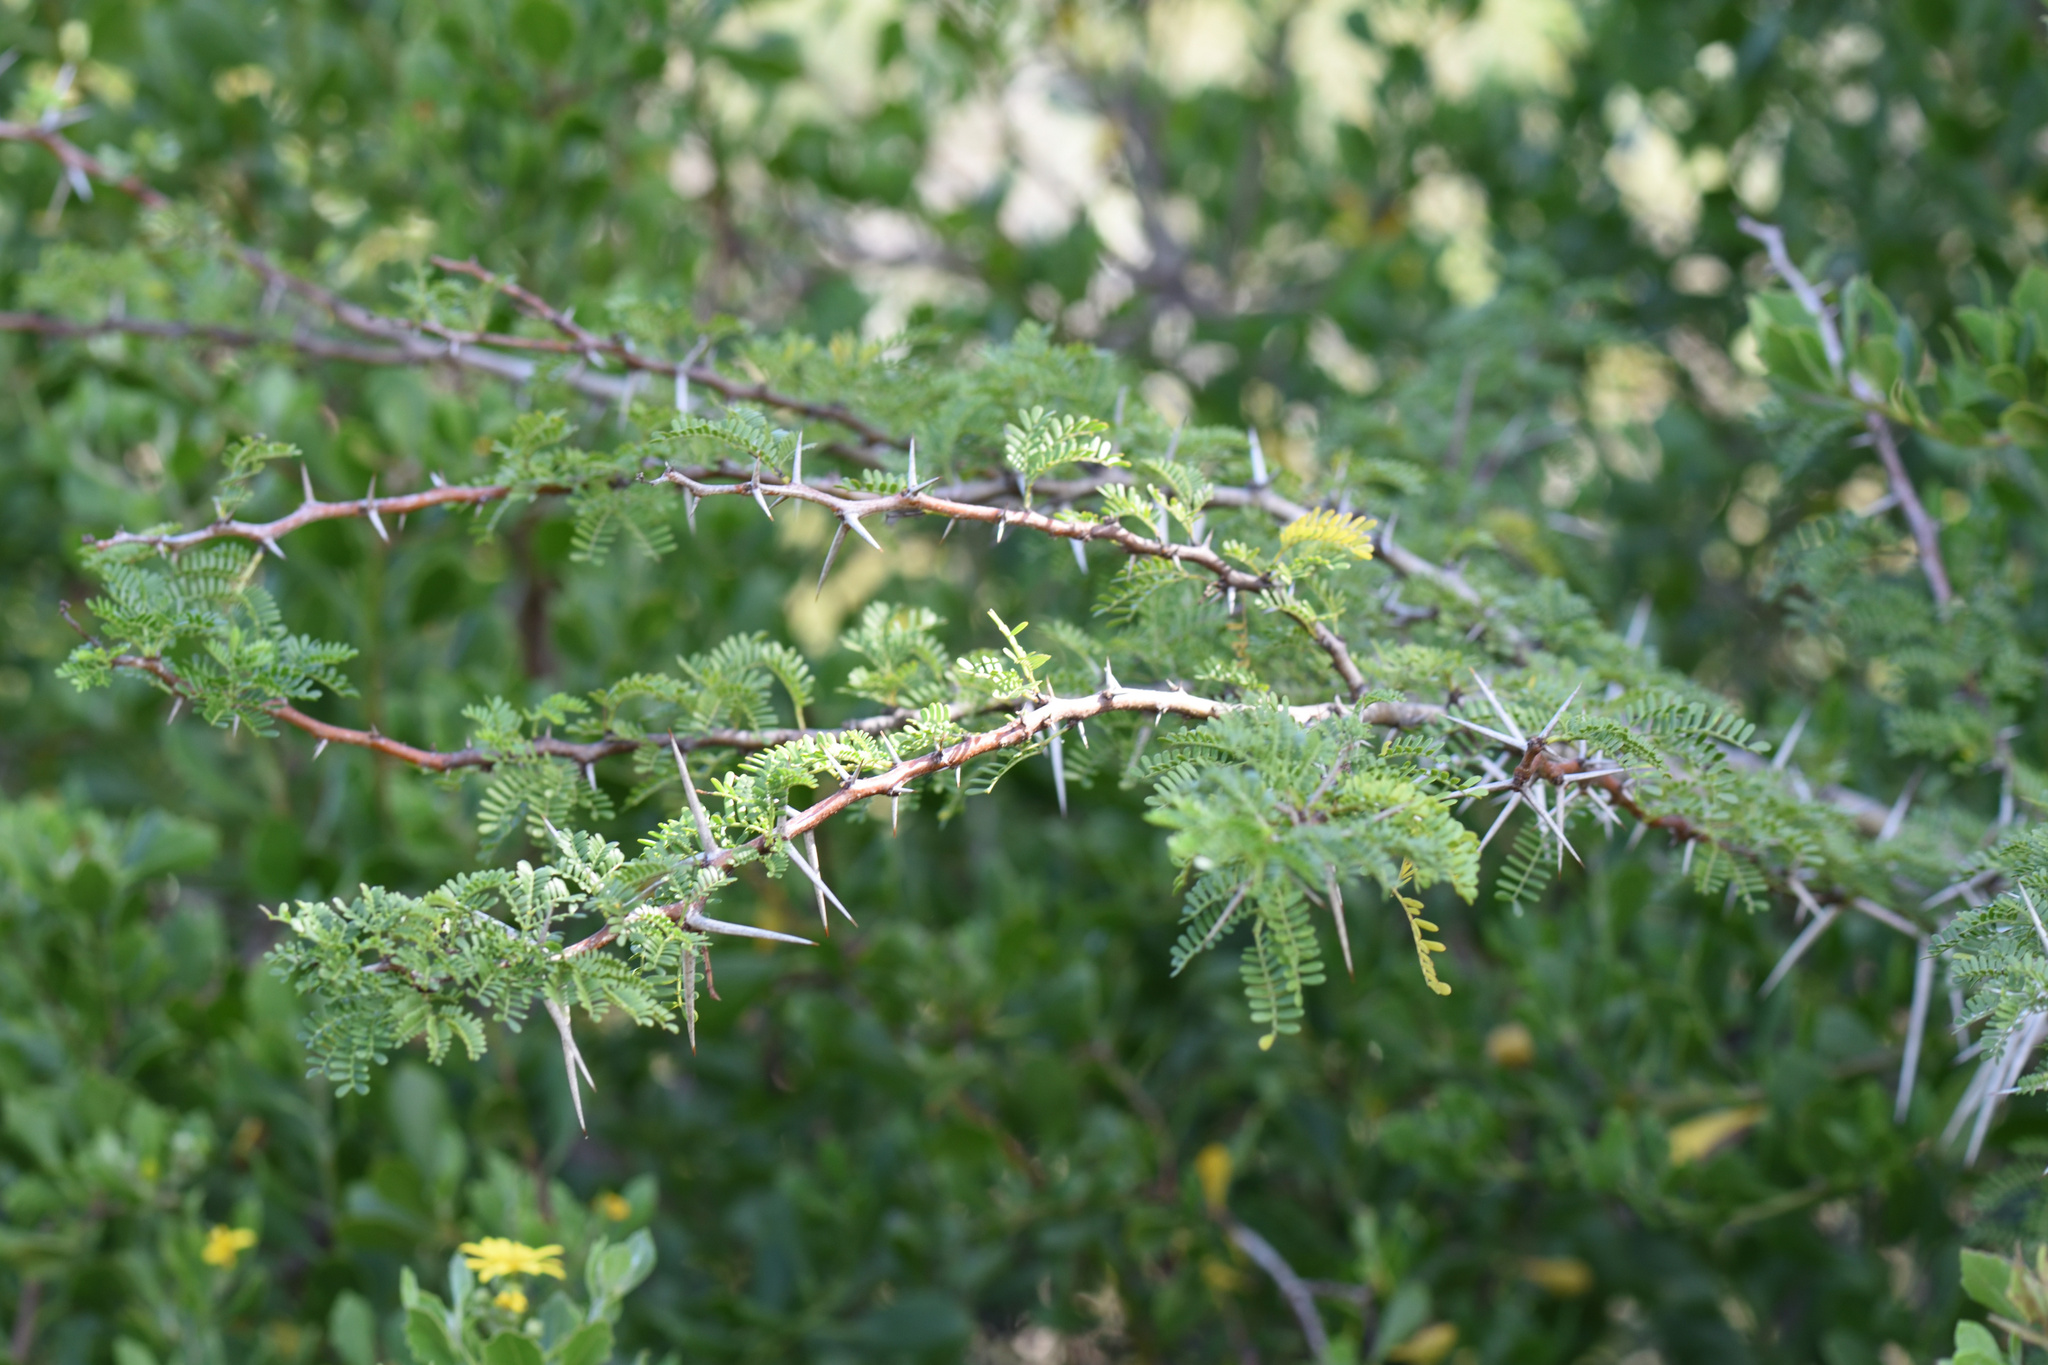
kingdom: Plantae
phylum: Tracheophyta
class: Magnoliopsida
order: Fabales
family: Fabaceae
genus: Vachellia
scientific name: Vachellia karroo
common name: Sweet thorn
